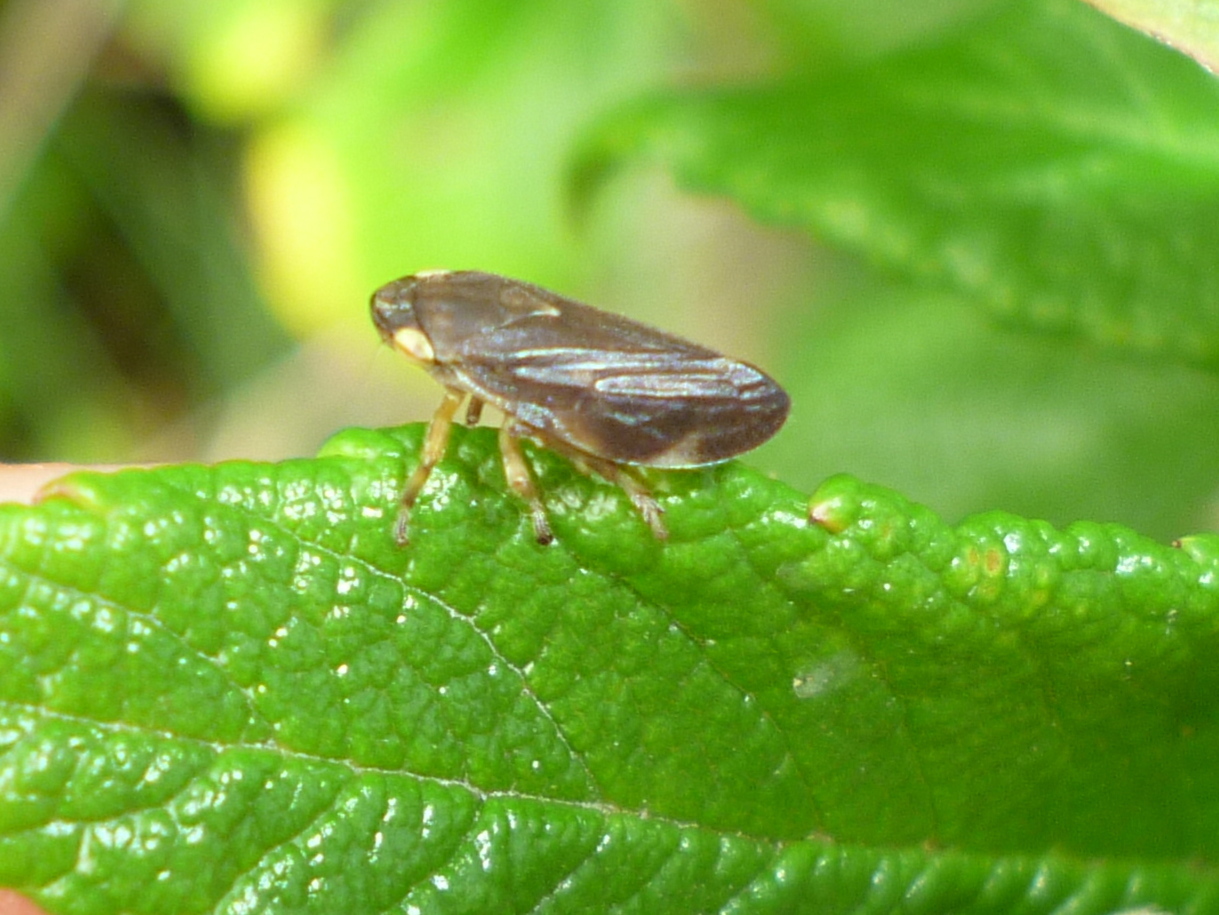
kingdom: Animalia
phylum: Arthropoda
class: Insecta
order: Hemiptera
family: Aphrophoridae
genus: Philaenus
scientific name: Philaenus spumarius
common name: Meadow spittlebug
